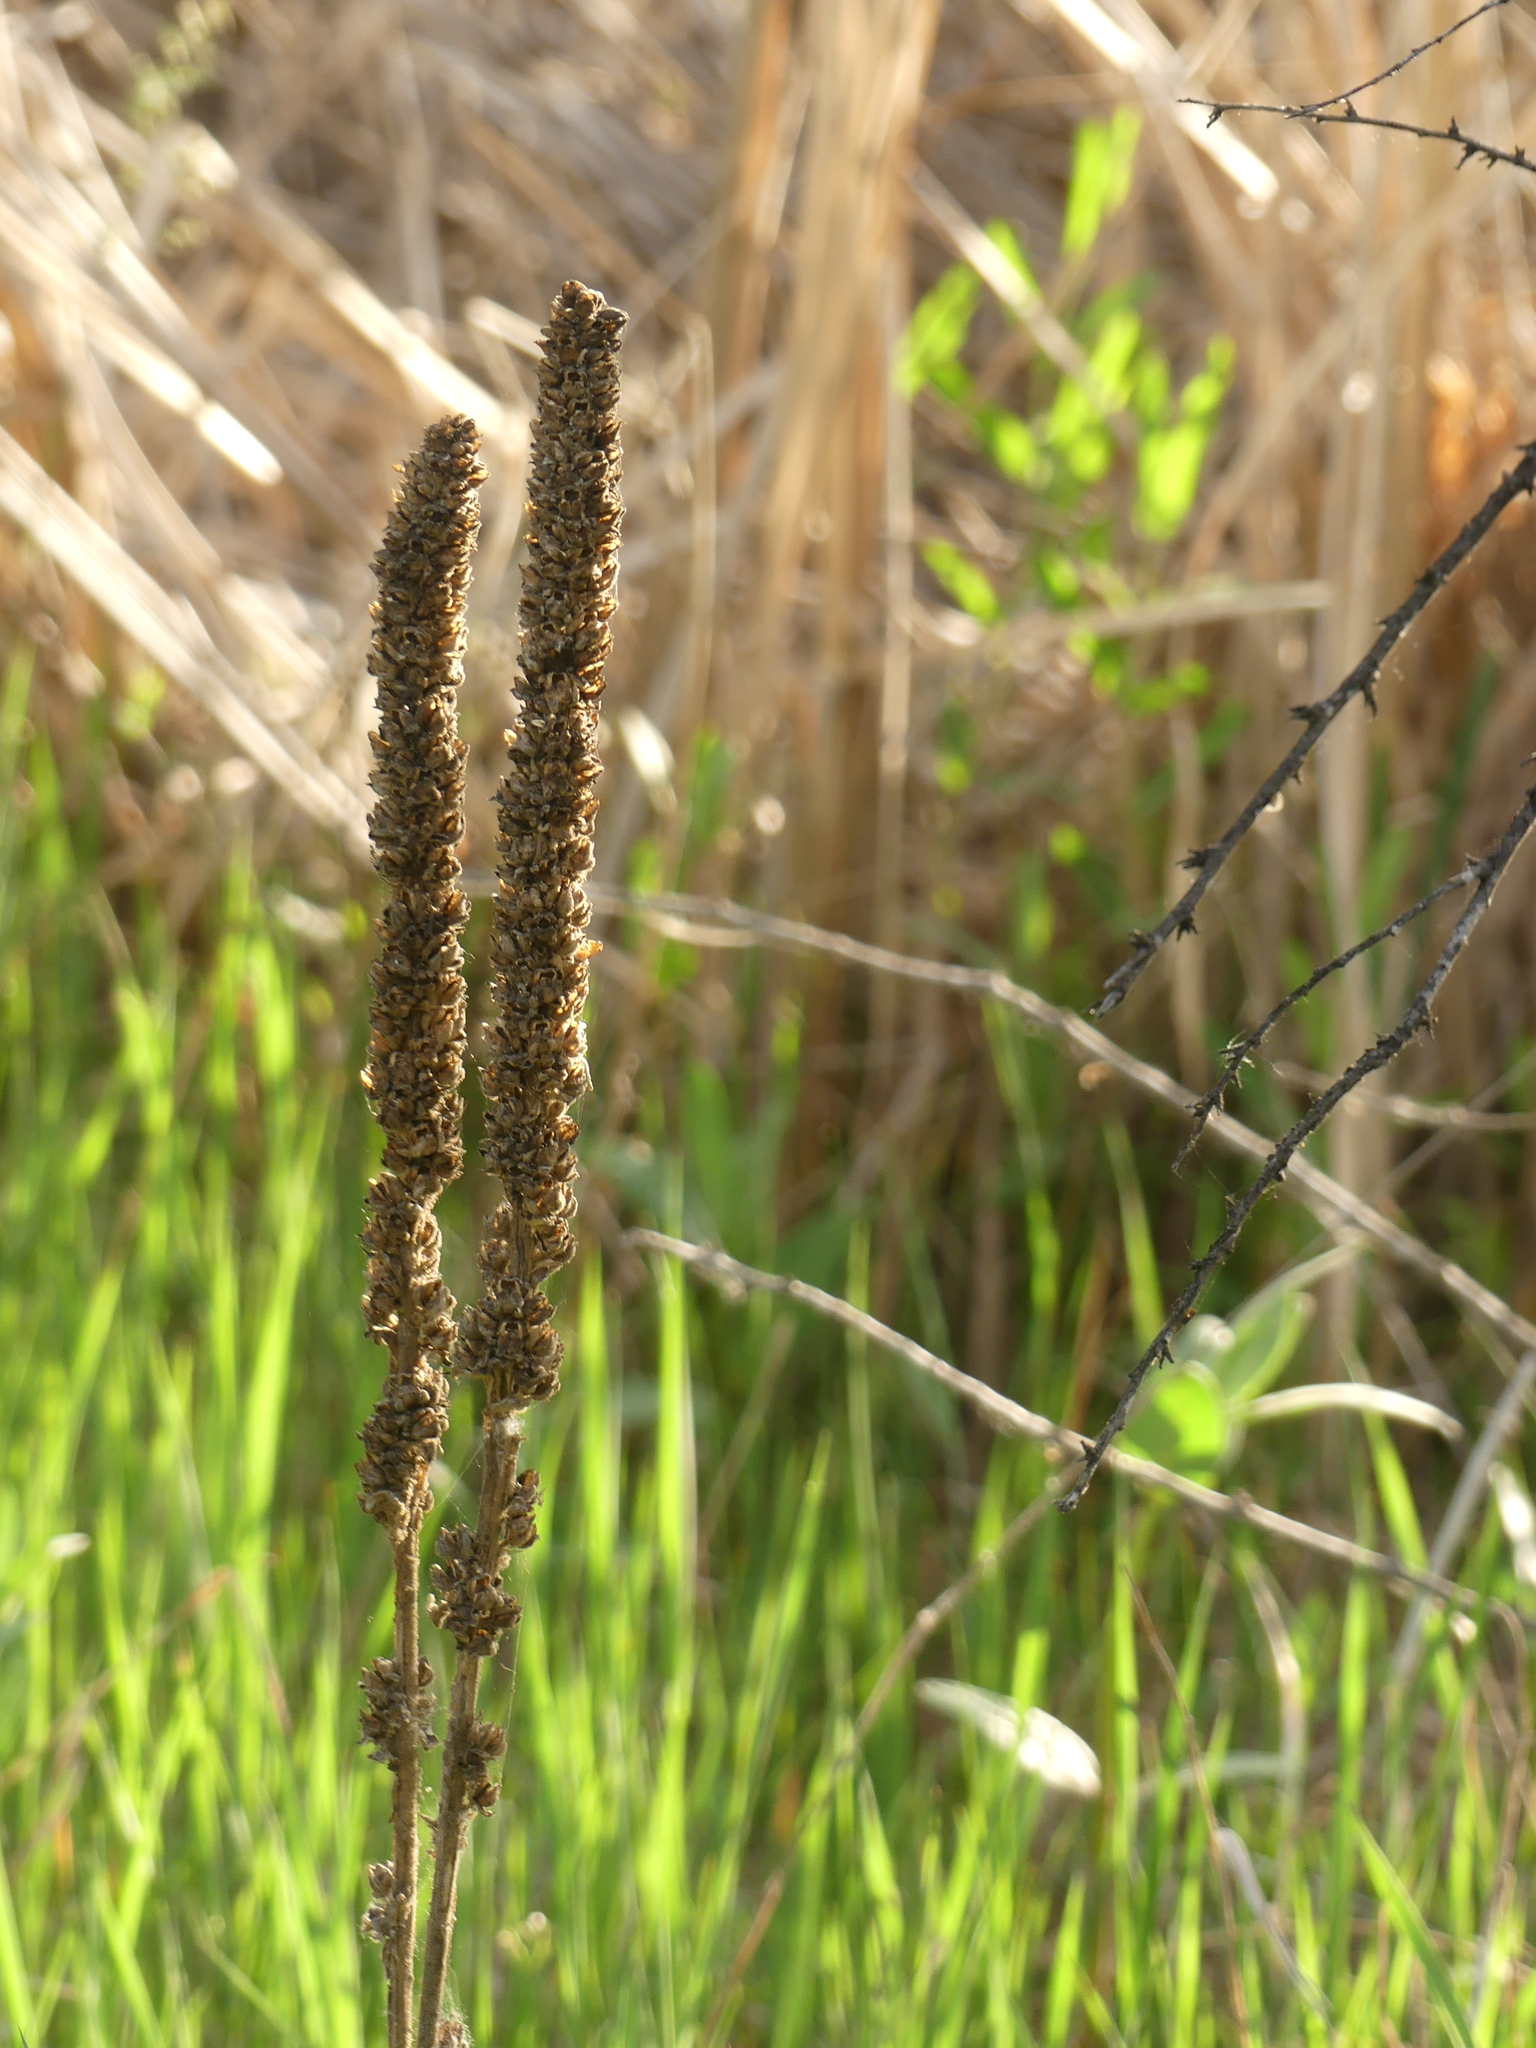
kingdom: Plantae
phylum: Tracheophyta
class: Magnoliopsida
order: Lamiales
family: Scrophulariaceae
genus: Verbascum
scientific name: Verbascum thapsus
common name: Common mullein
